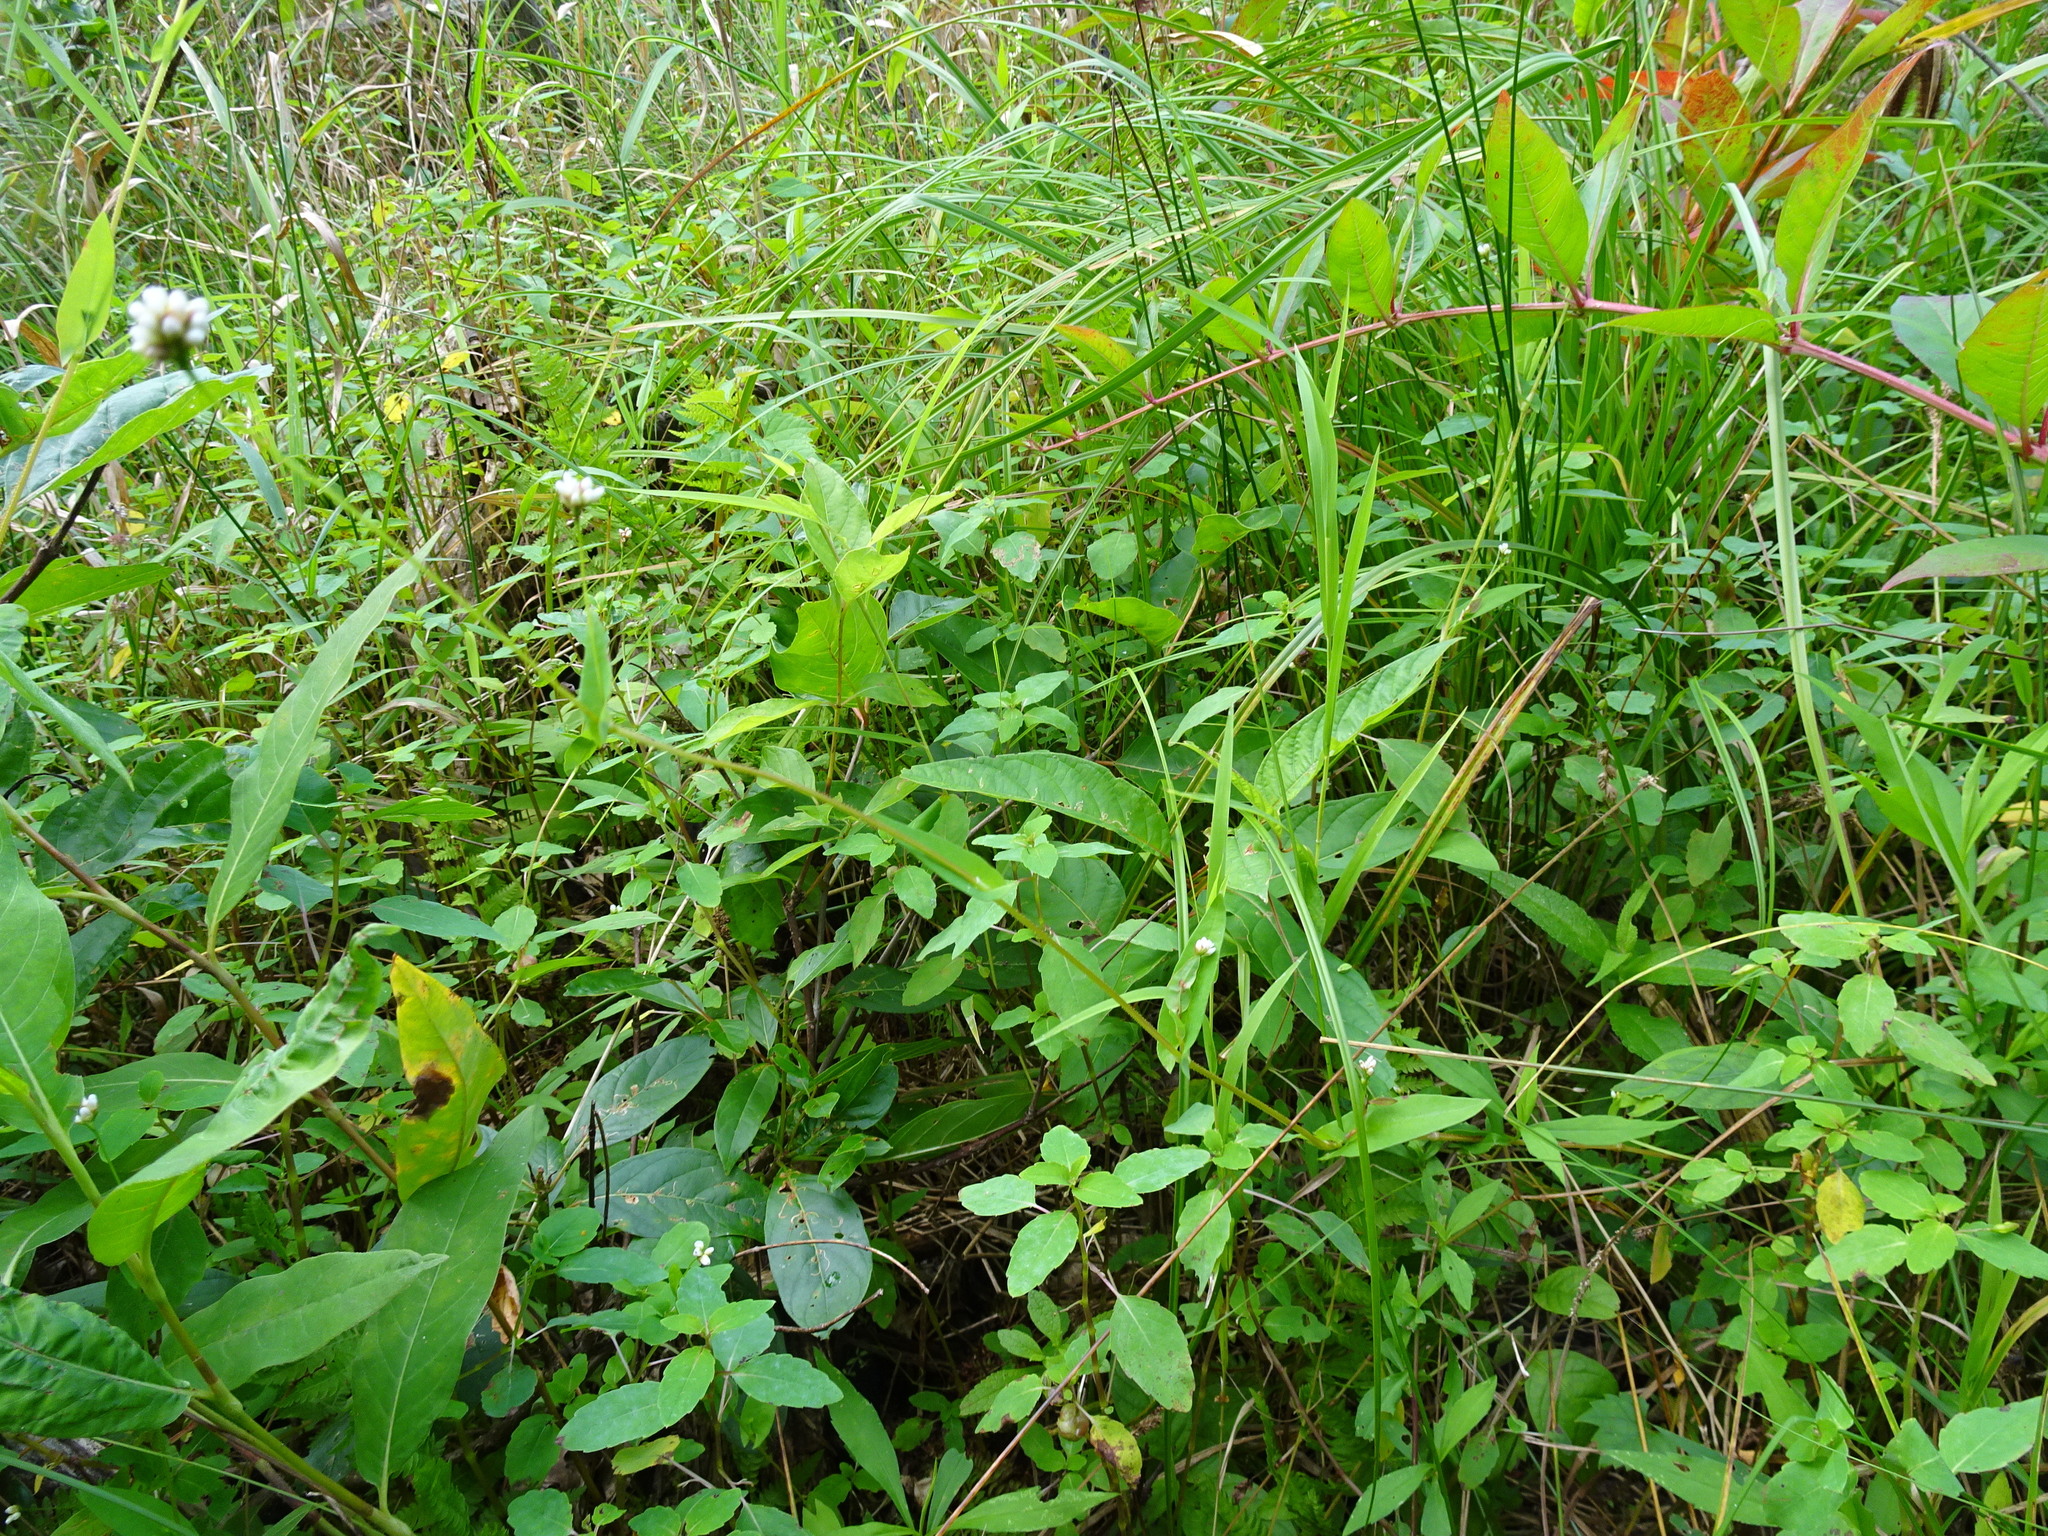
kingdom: Plantae
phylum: Tracheophyta
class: Magnoliopsida
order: Caryophyllales
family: Polygonaceae
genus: Persicaria
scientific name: Persicaria sagittata
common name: American tearthumb
